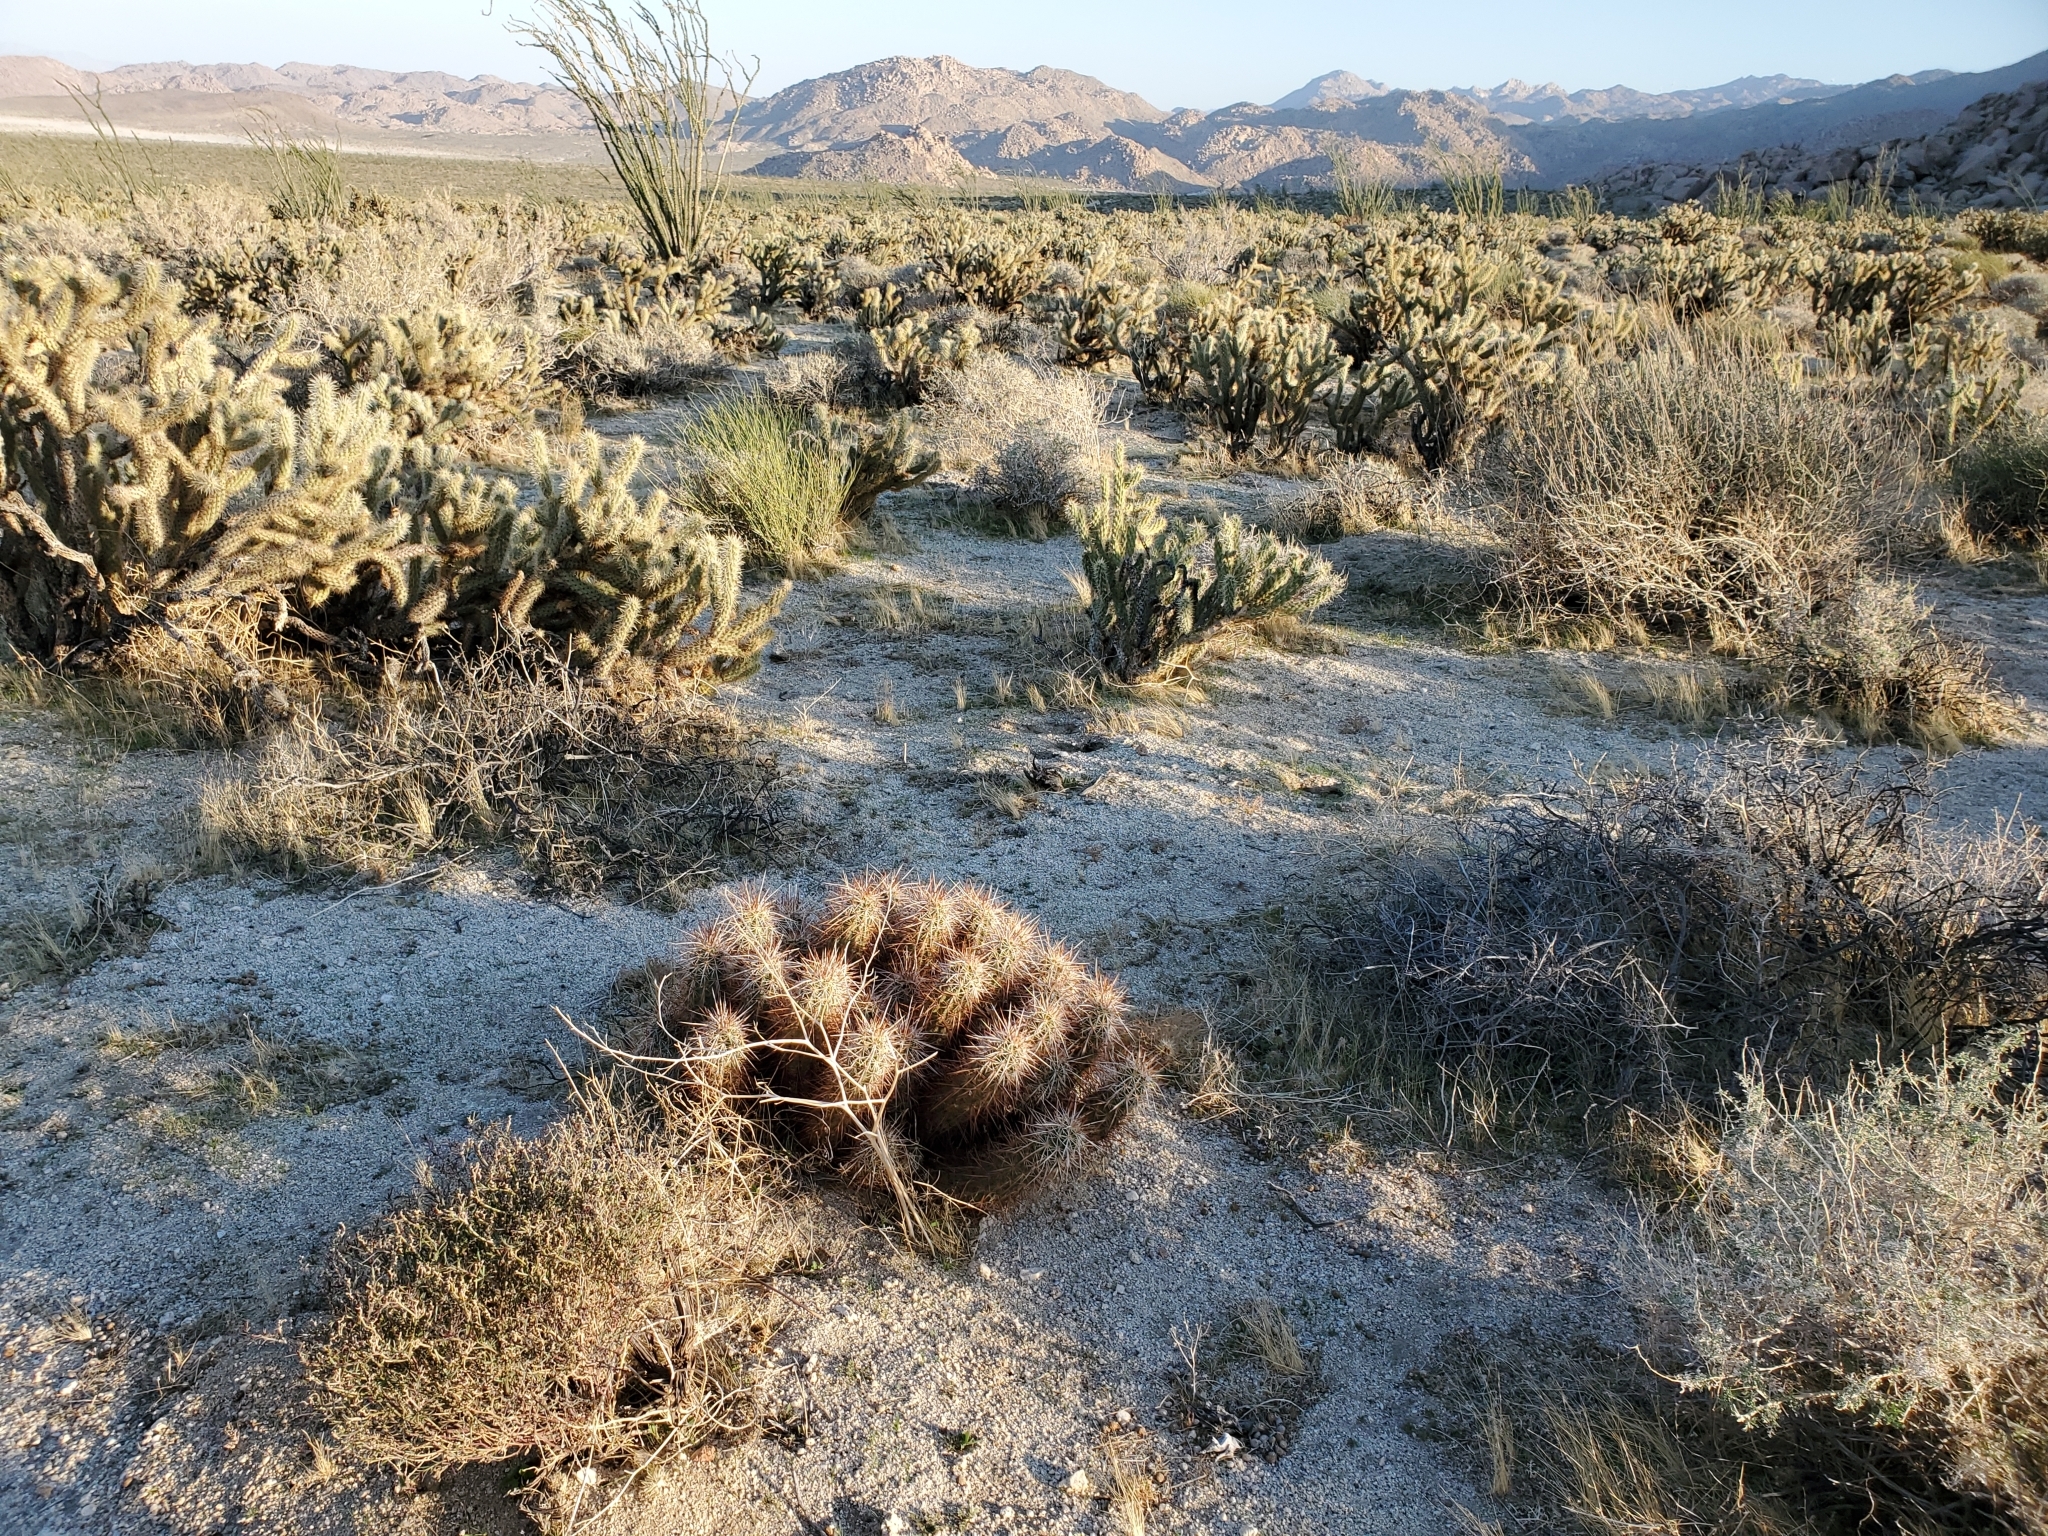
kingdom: Plantae
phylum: Tracheophyta
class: Magnoliopsida
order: Caryophyllales
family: Cactaceae
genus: Echinocereus
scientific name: Echinocereus engelmannii
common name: Engelmann's hedgehog cactus
